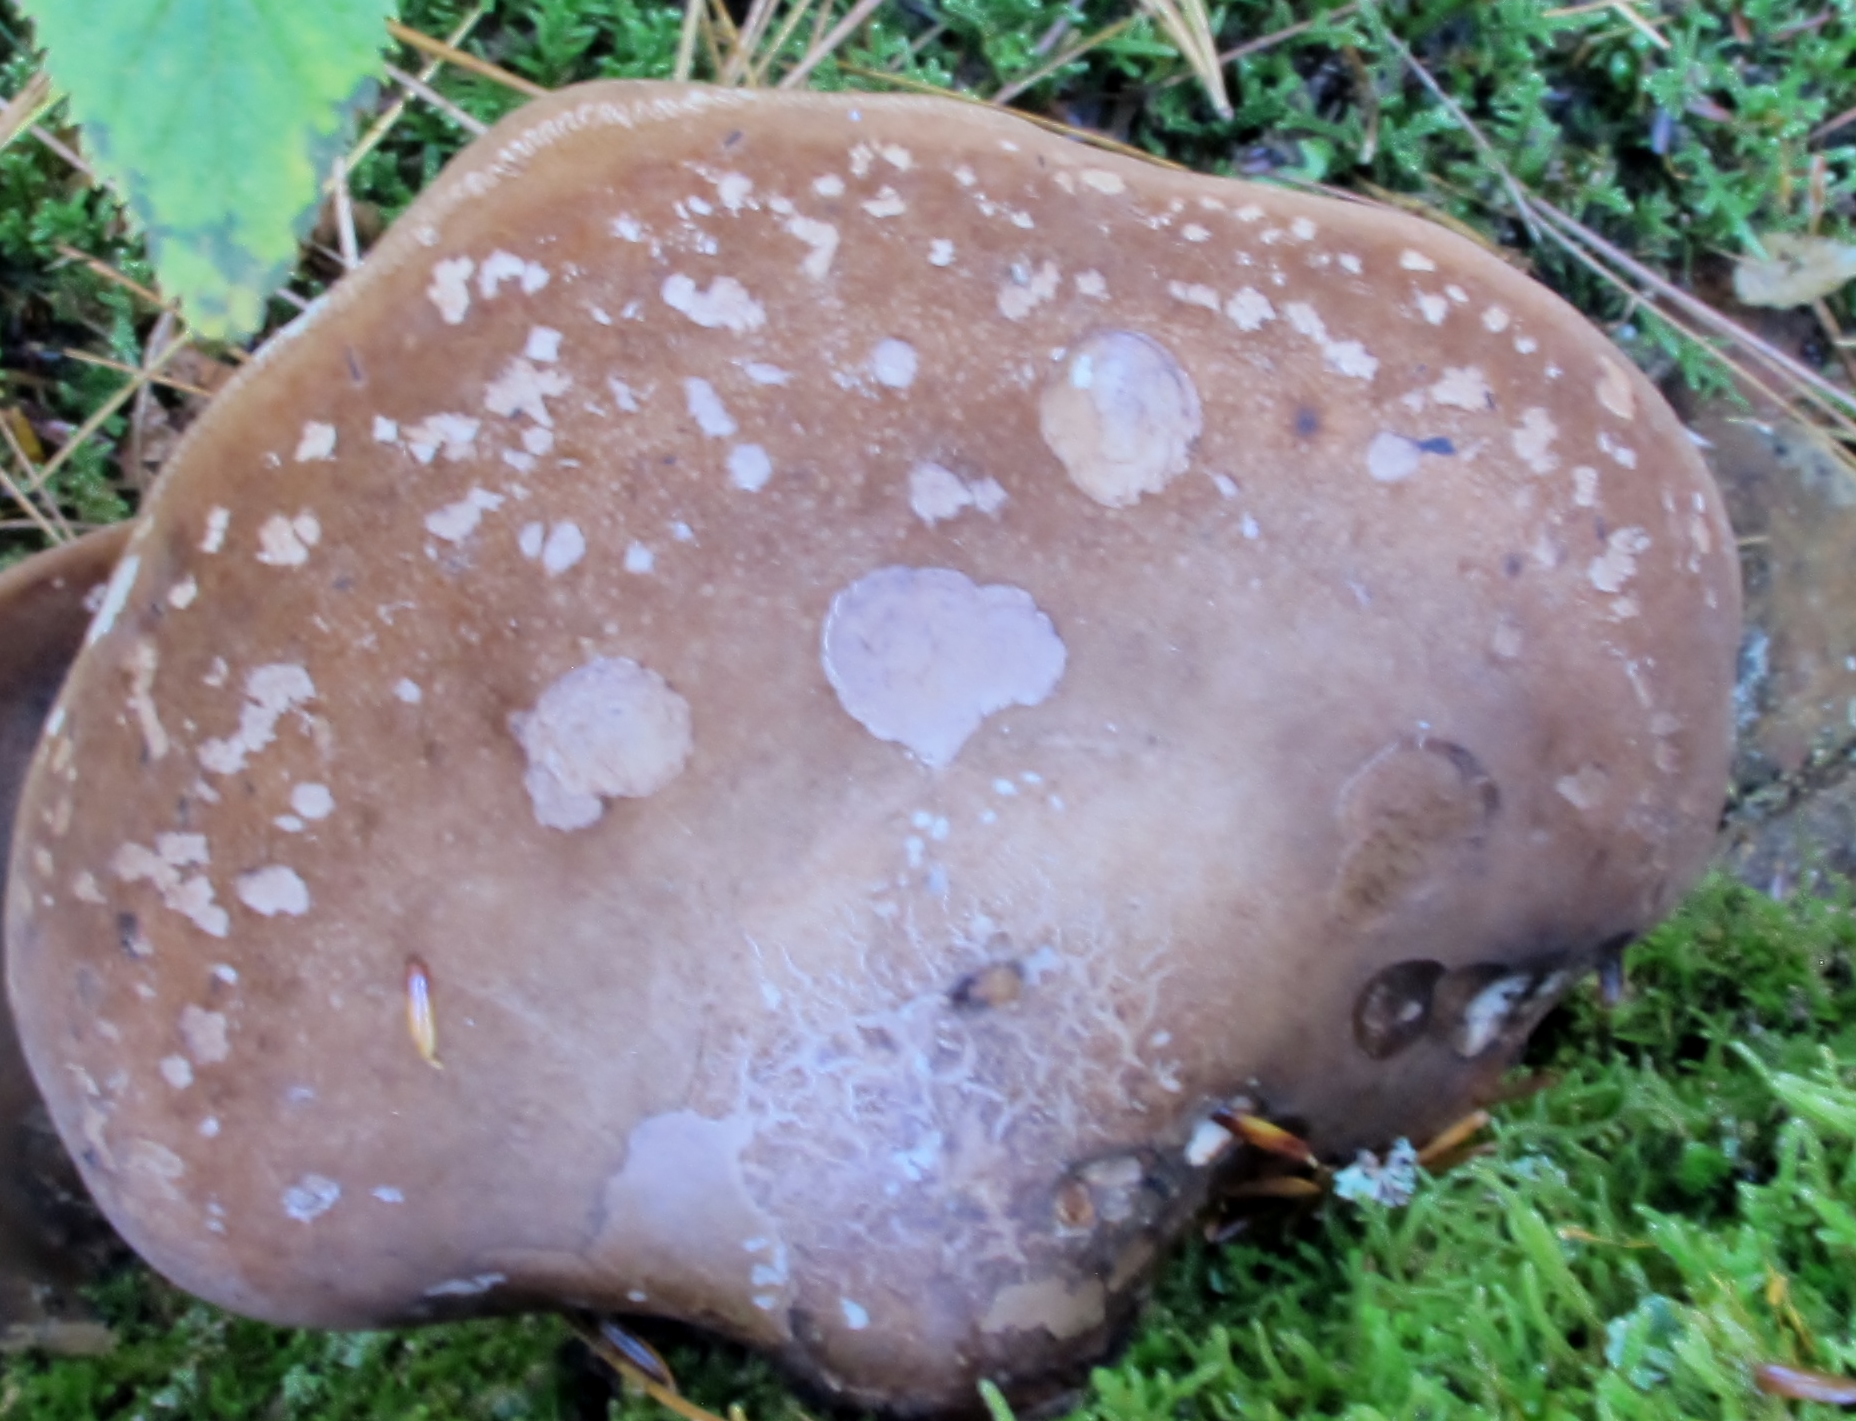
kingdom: Fungi
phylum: Basidiomycota
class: Agaricomycetes
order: Polyporales
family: Fomitopsidaceae
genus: Fomitopsis
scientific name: Fomitopsis betulina
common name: Birch polypore
